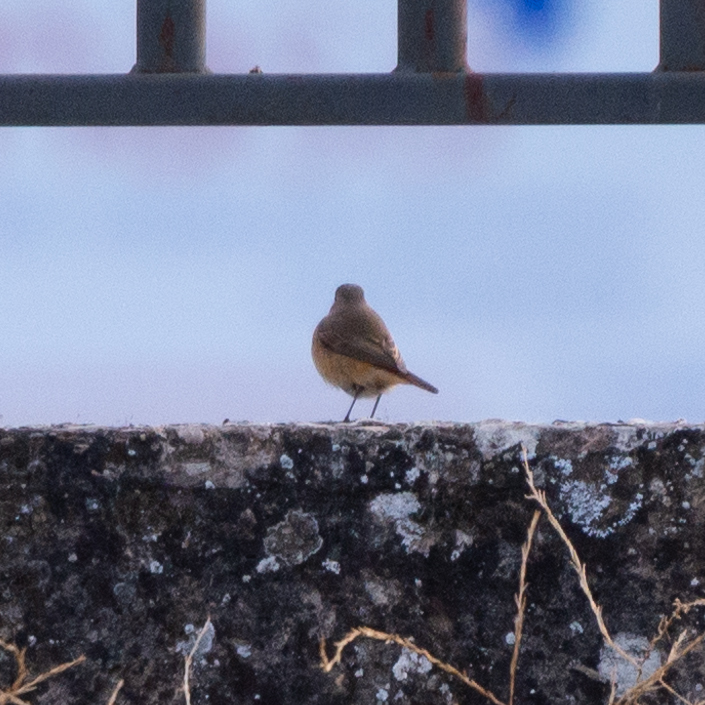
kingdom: Animalia
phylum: Chordata
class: Aves
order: Passeriformes
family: Muscicapidae
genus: Phoenicurus
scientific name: Phoenicurus phoenicurus
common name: Common redstart
